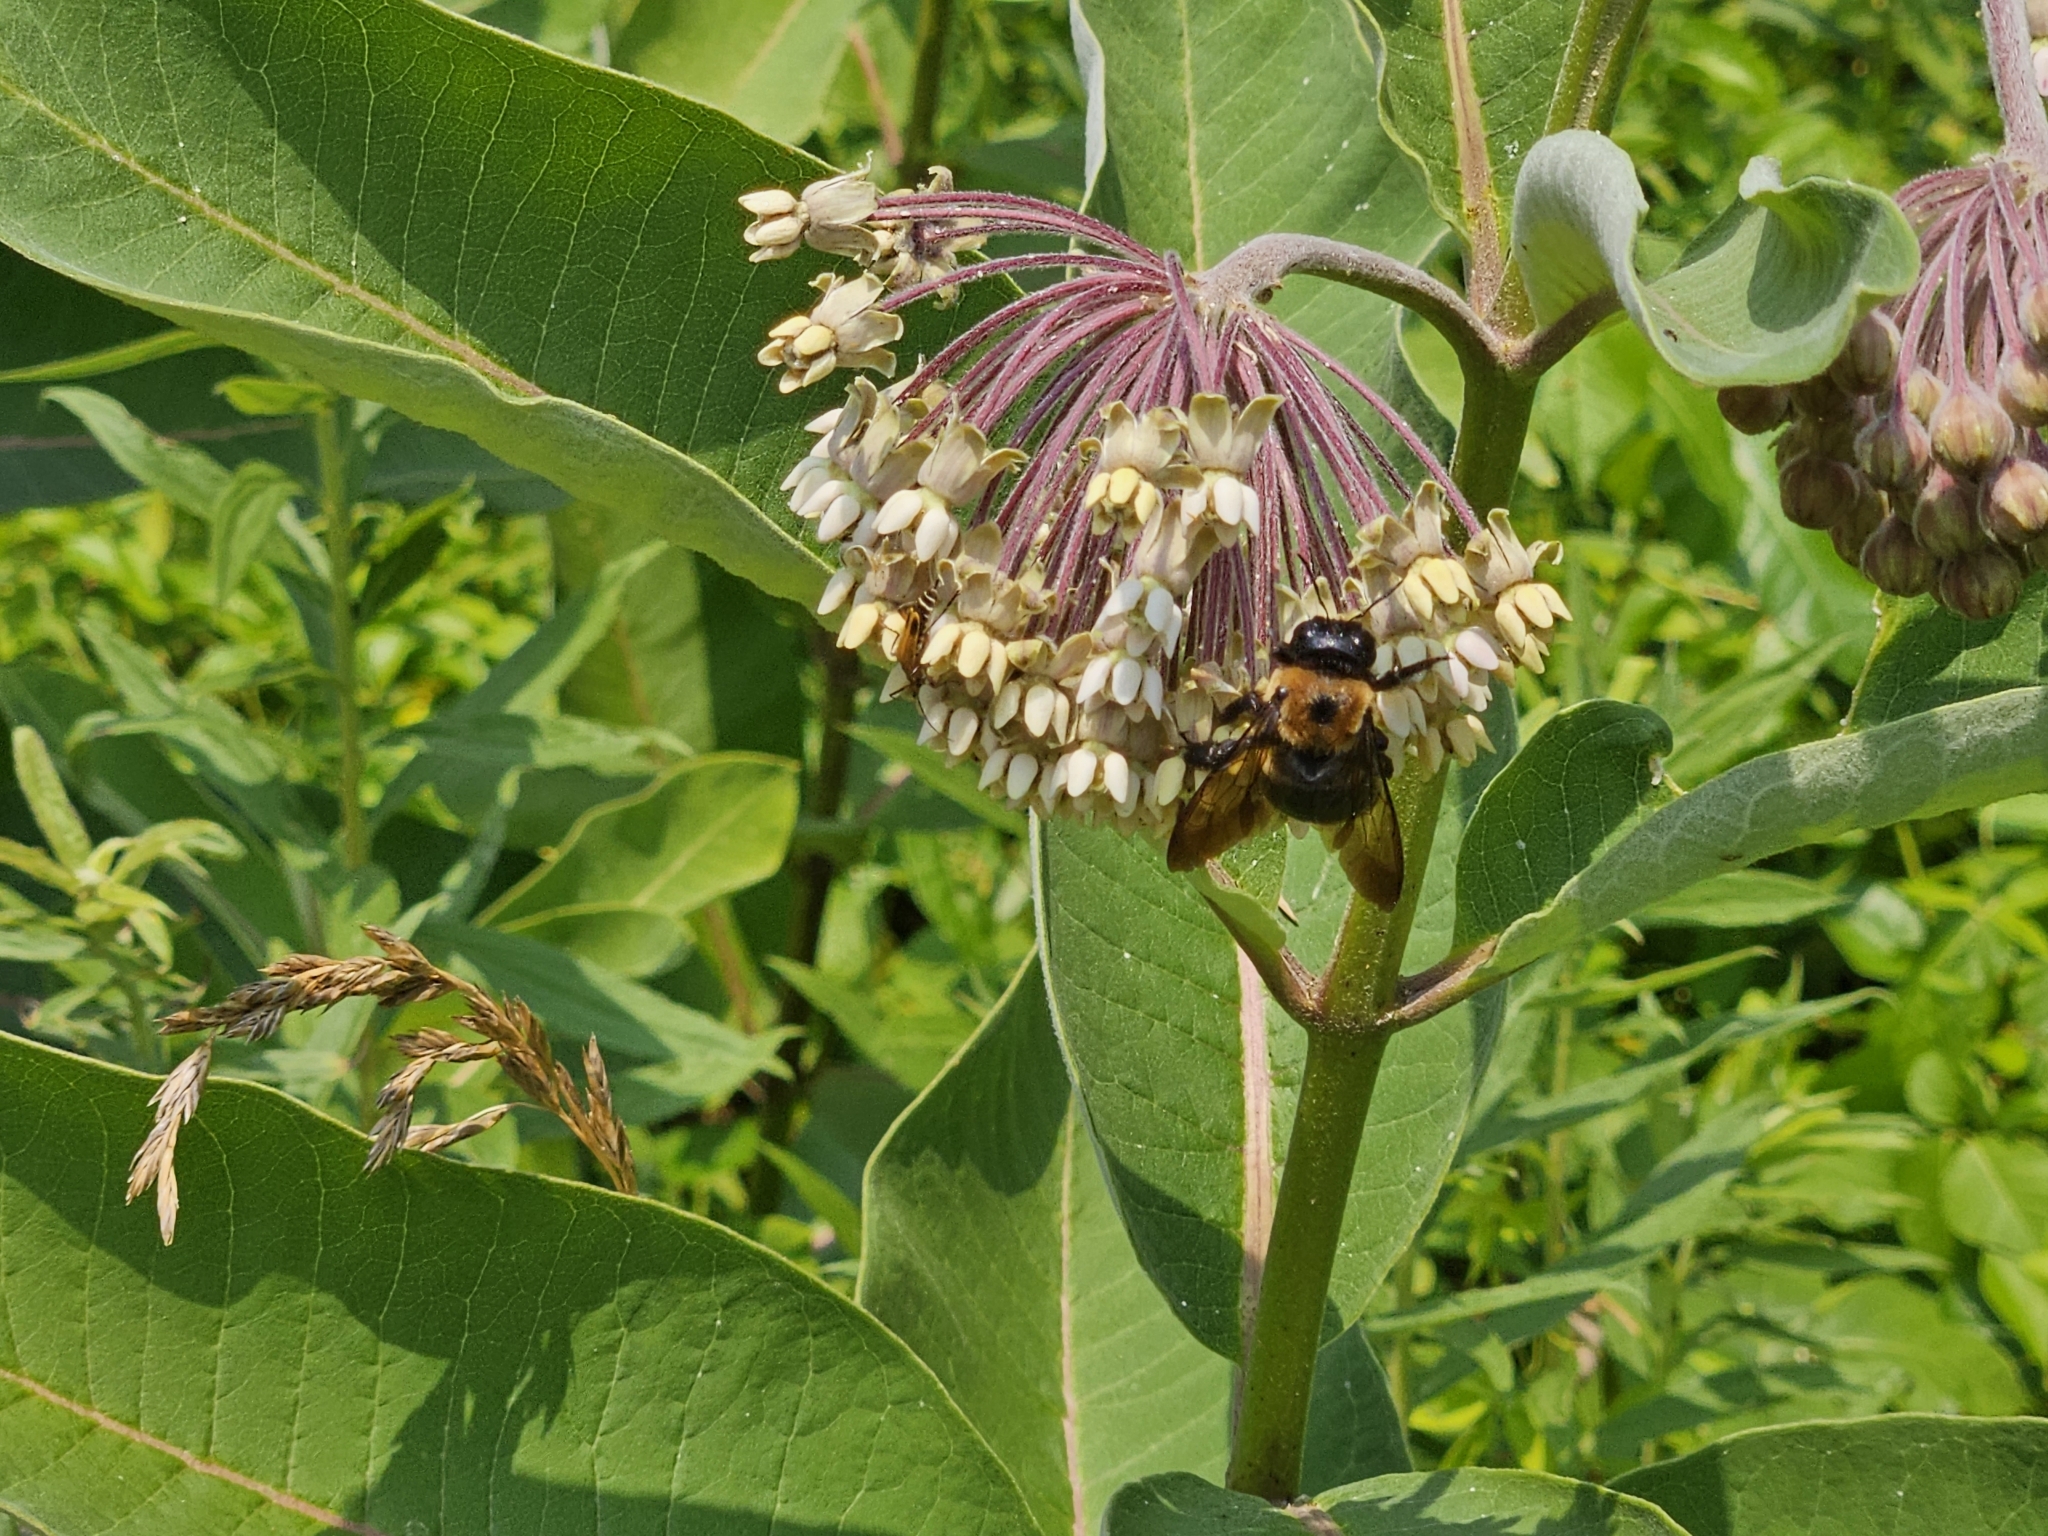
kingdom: Animalia
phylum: Arthropoda
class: Insecta
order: Hymenoptera
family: Apidae
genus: Xylocopa
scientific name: Xylocopa virginica
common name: Carpenter bee
